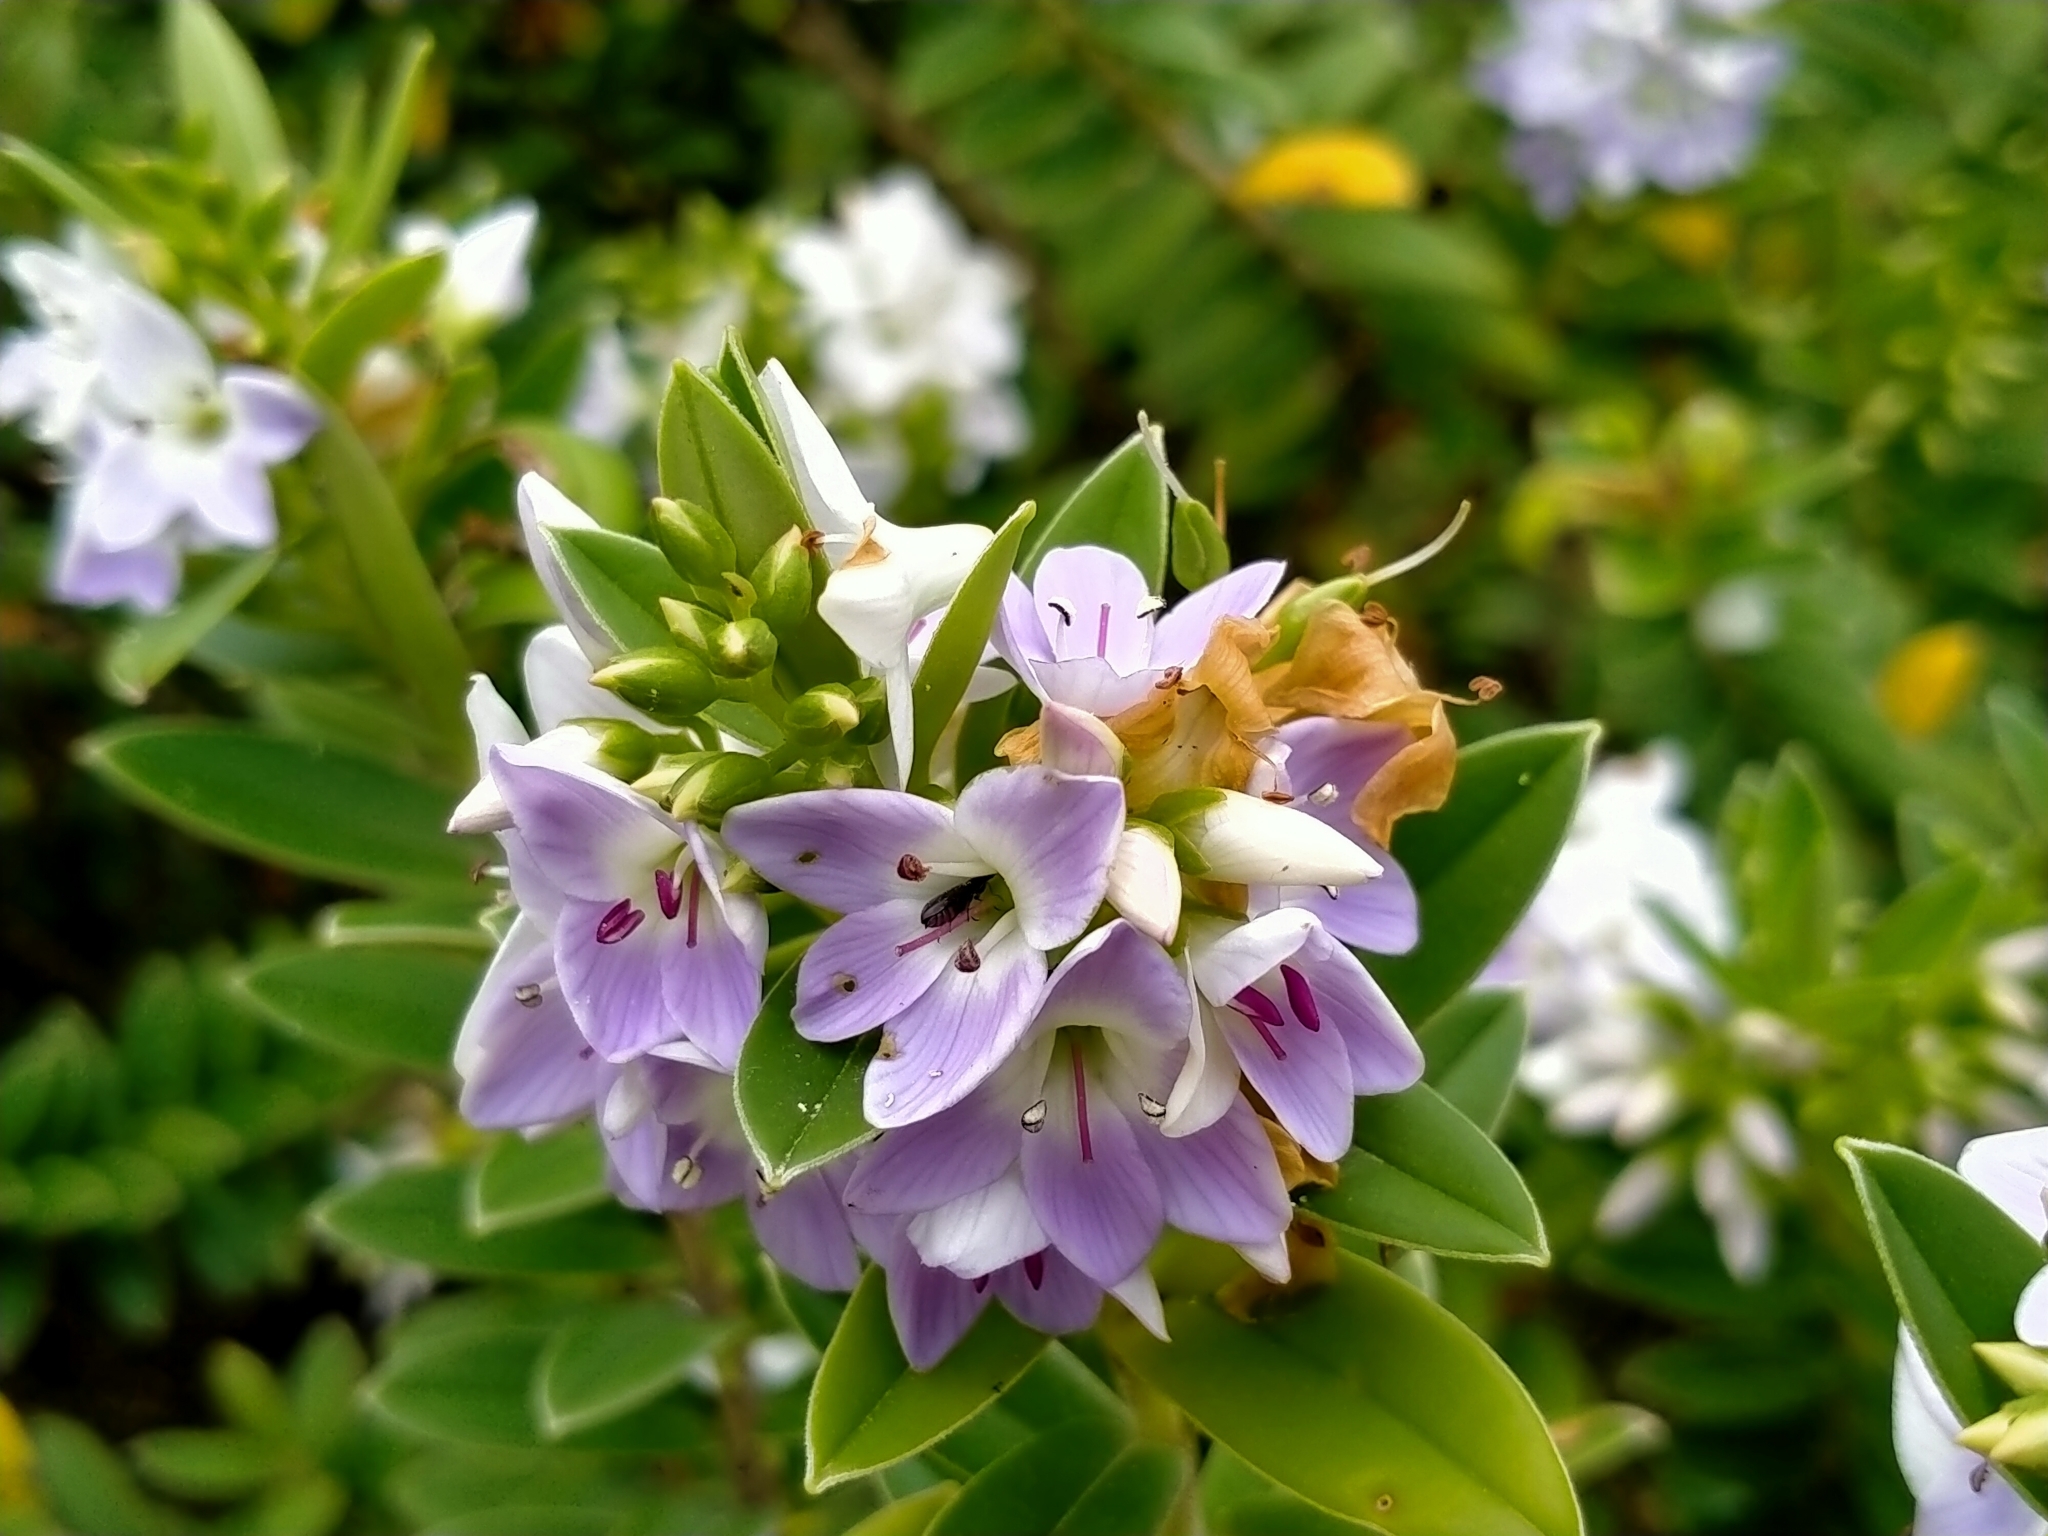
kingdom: Plantae
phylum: Tracheophyta
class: Magnoliopsida
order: Lamiales
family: Plantaginaceae
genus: Veronica
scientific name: Veronica elliptica
